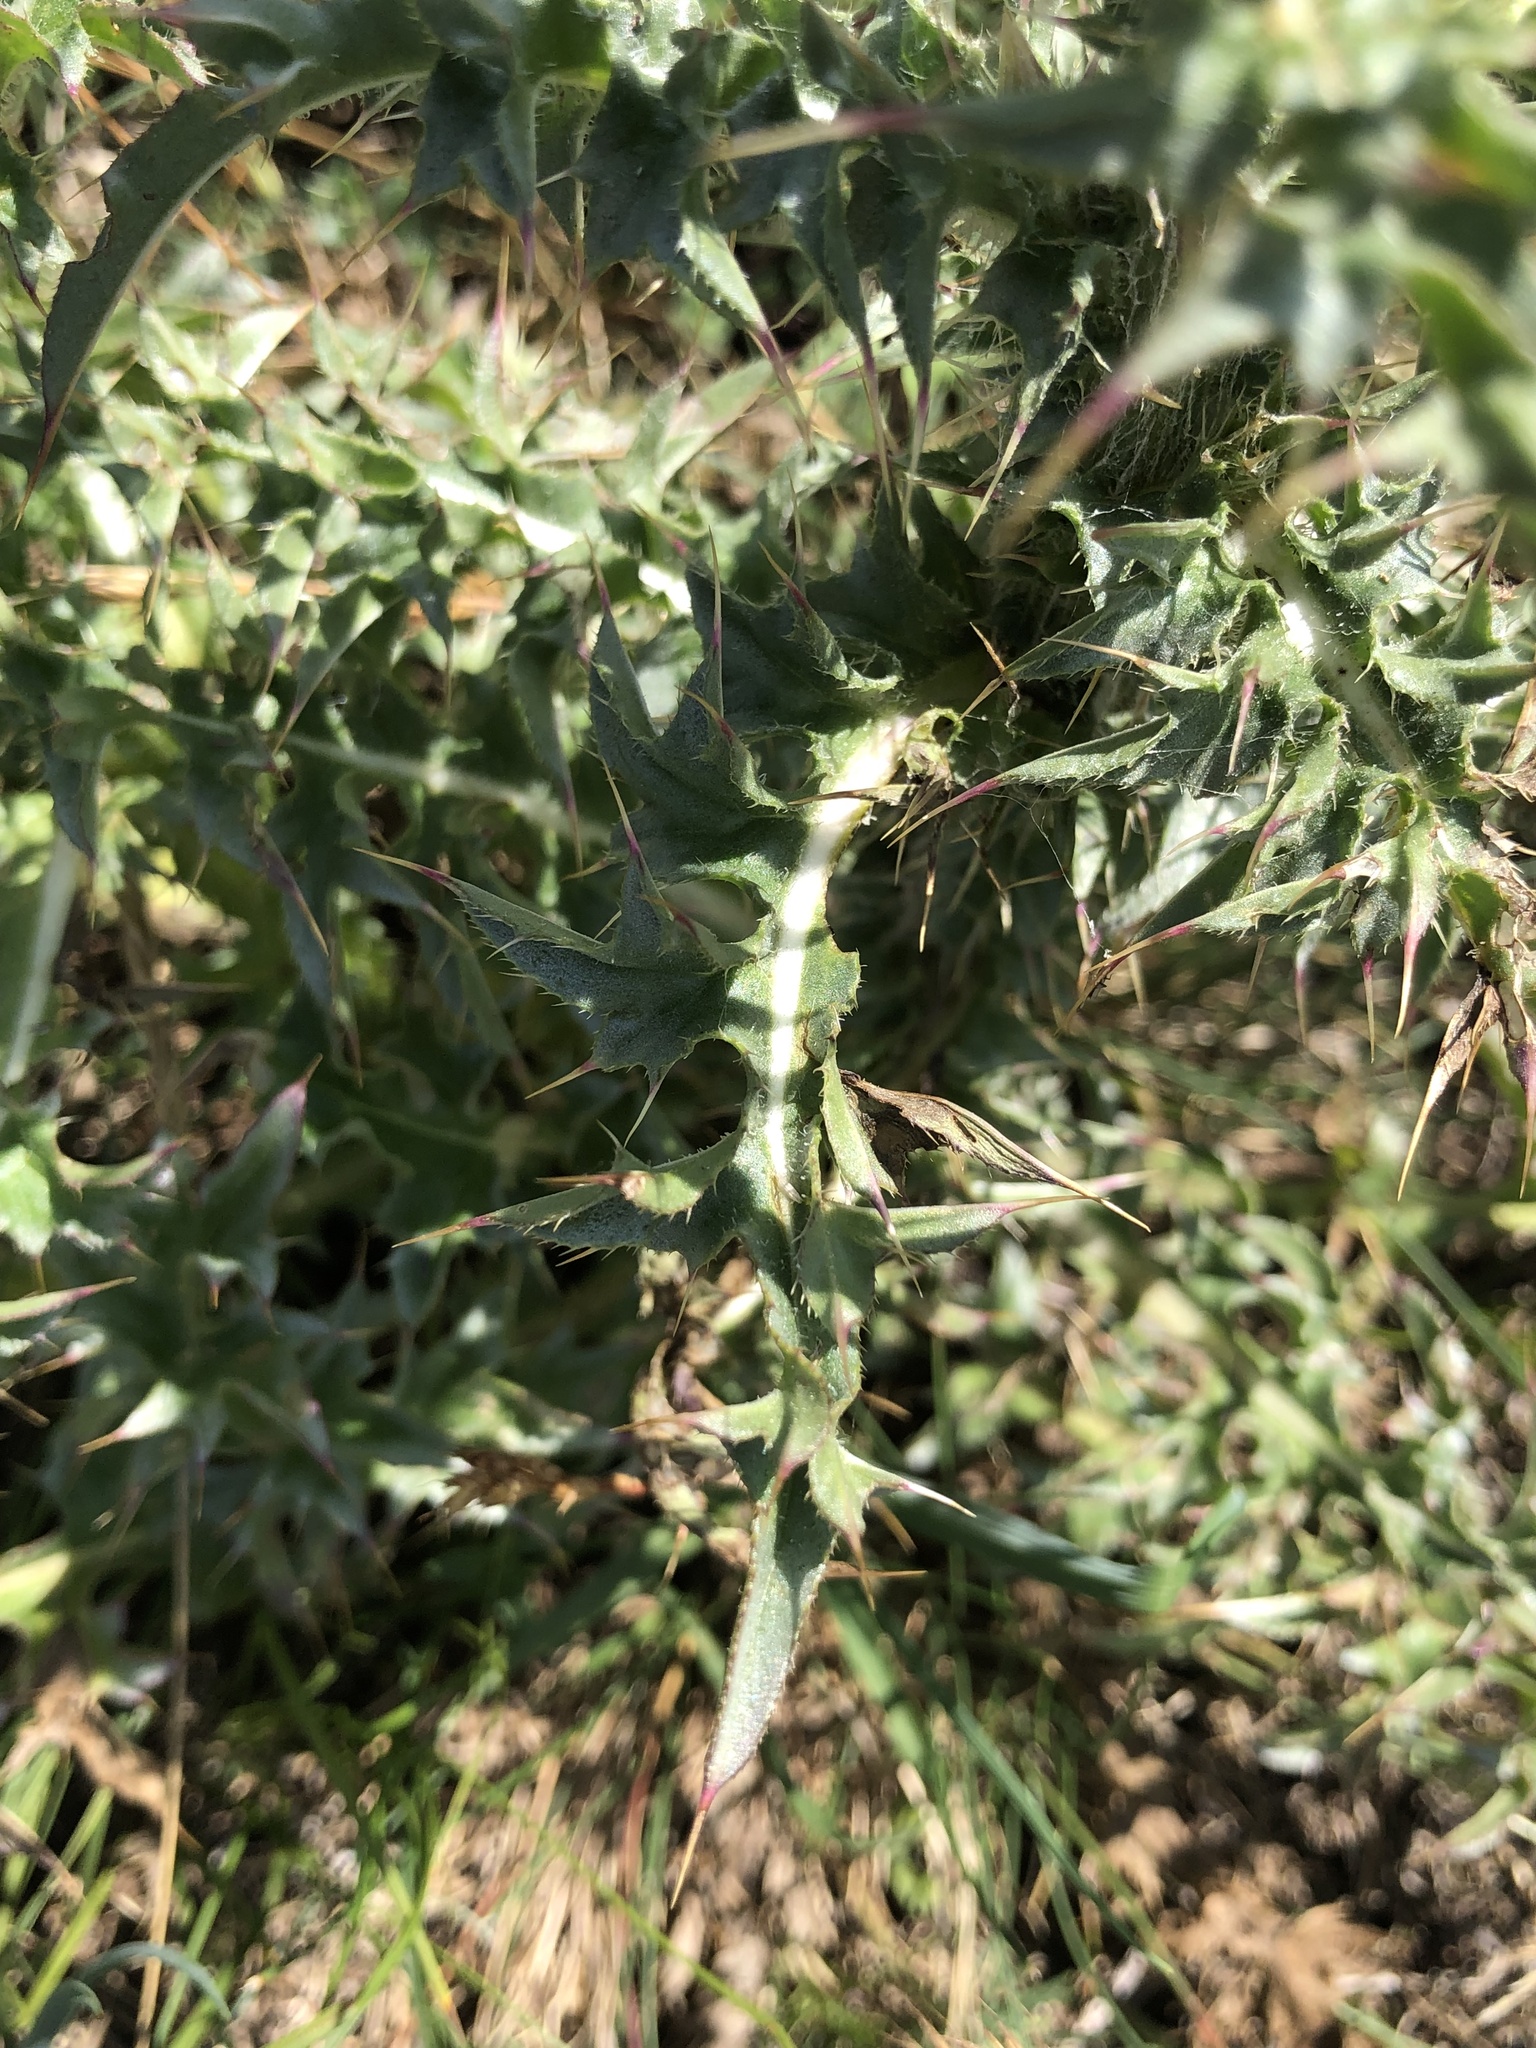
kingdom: Plantae
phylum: Tracheophyta
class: Magnoliopsida
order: Asterales
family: Asteraceae
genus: Carduus
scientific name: Carduus nutans
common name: Musk thistle
